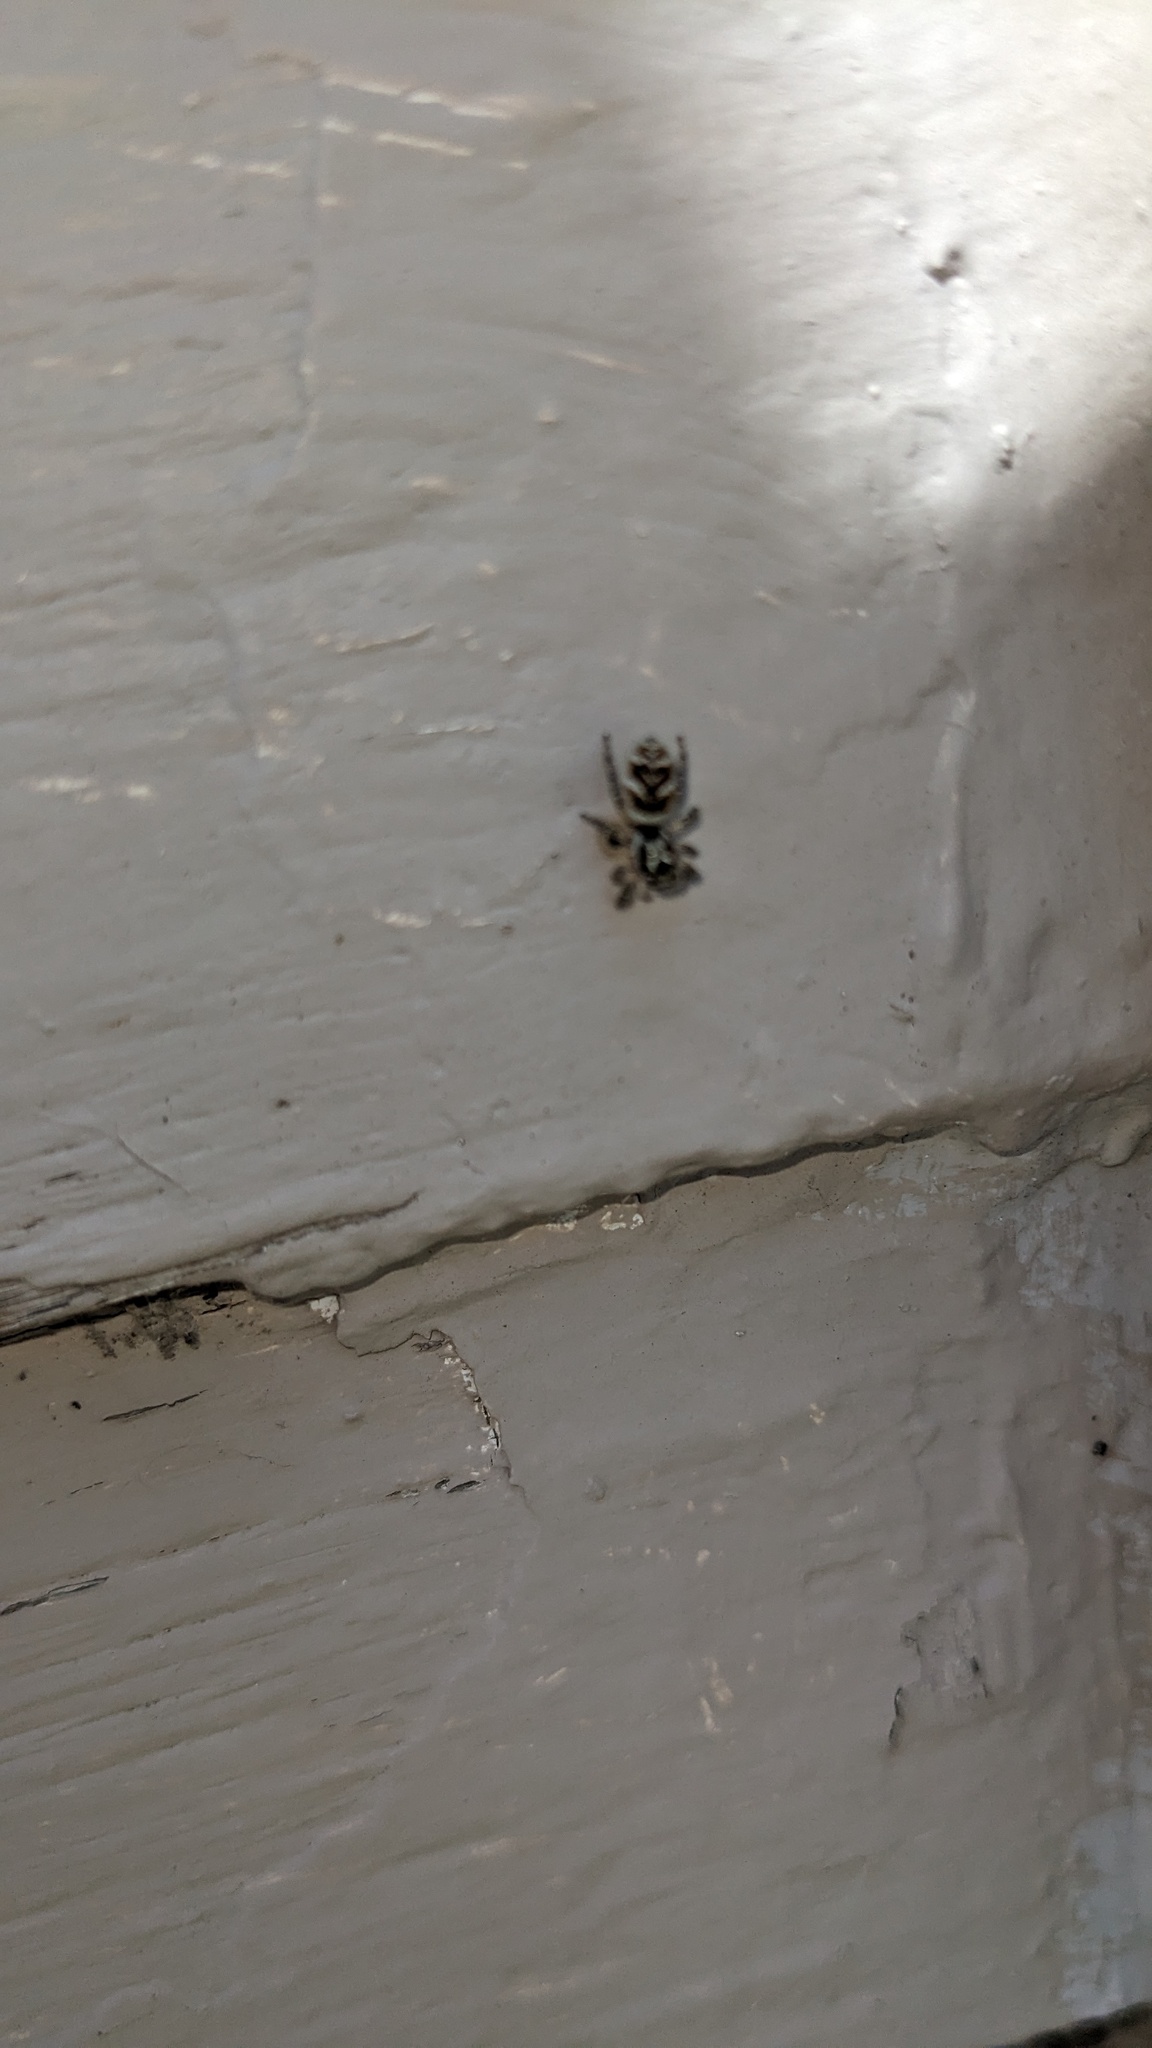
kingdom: Animalia
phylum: Arthropoda
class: Arachnida
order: Araneae
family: Salticidae
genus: Salticus
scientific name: Salticus scenicus
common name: Zebra jumper
